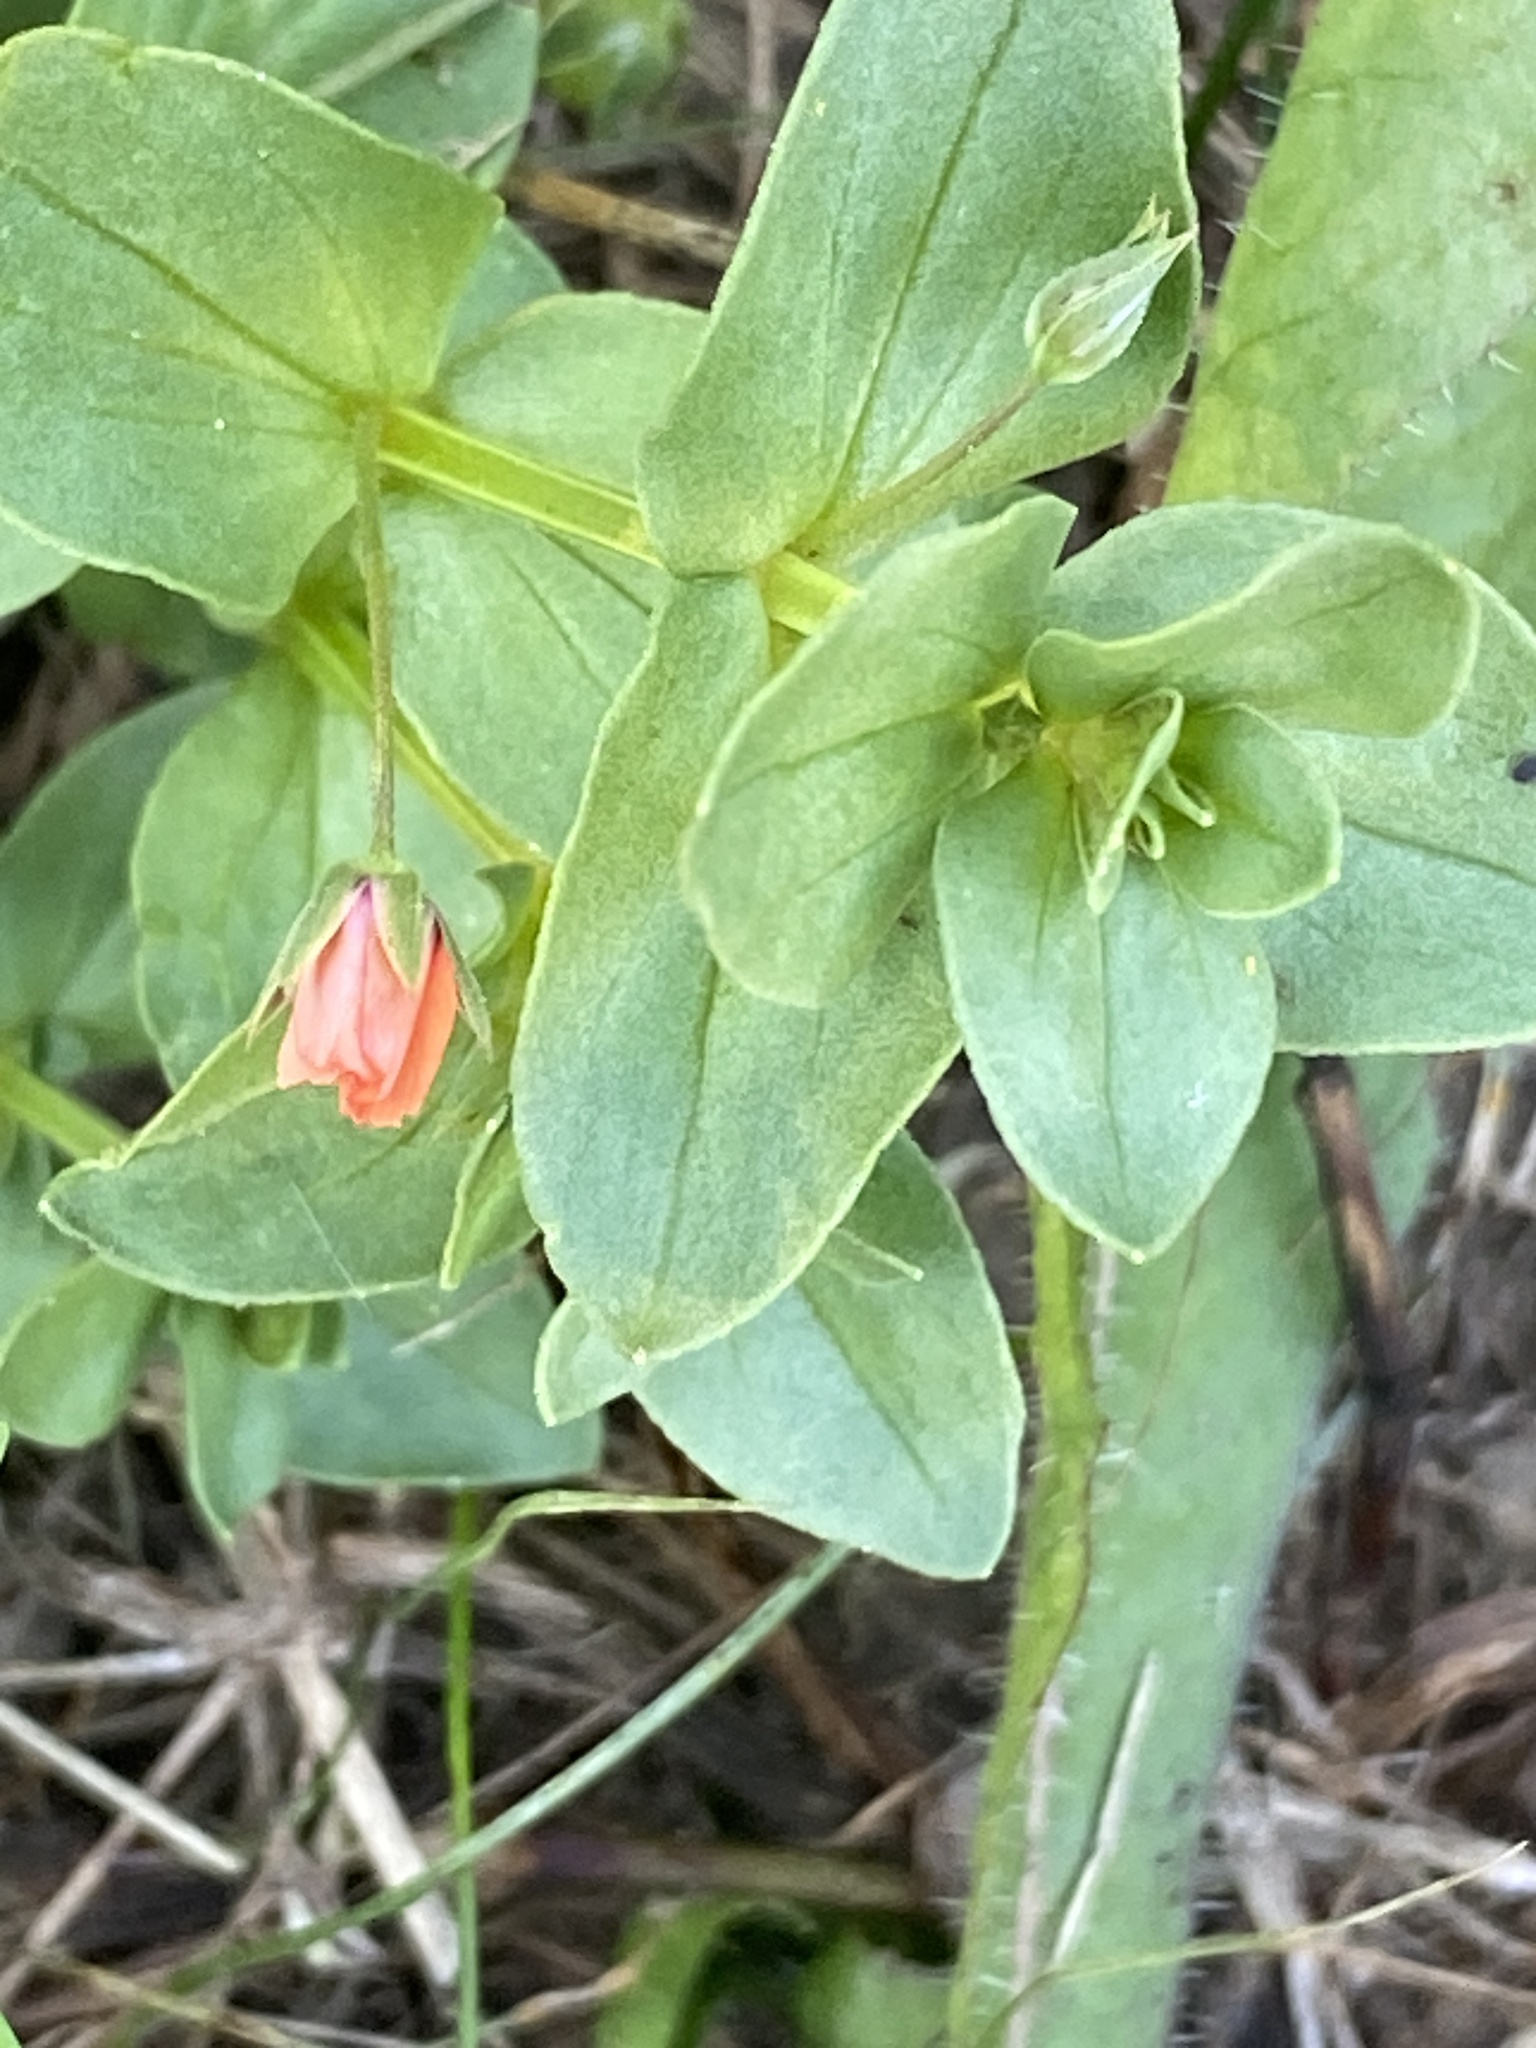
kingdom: Plantae
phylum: Tracheophyta
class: Magnoliopsida
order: Ericales
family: Primulaceae
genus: Lysimachia
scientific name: Lysimachia arvensis
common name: Scarlet pimpernel
